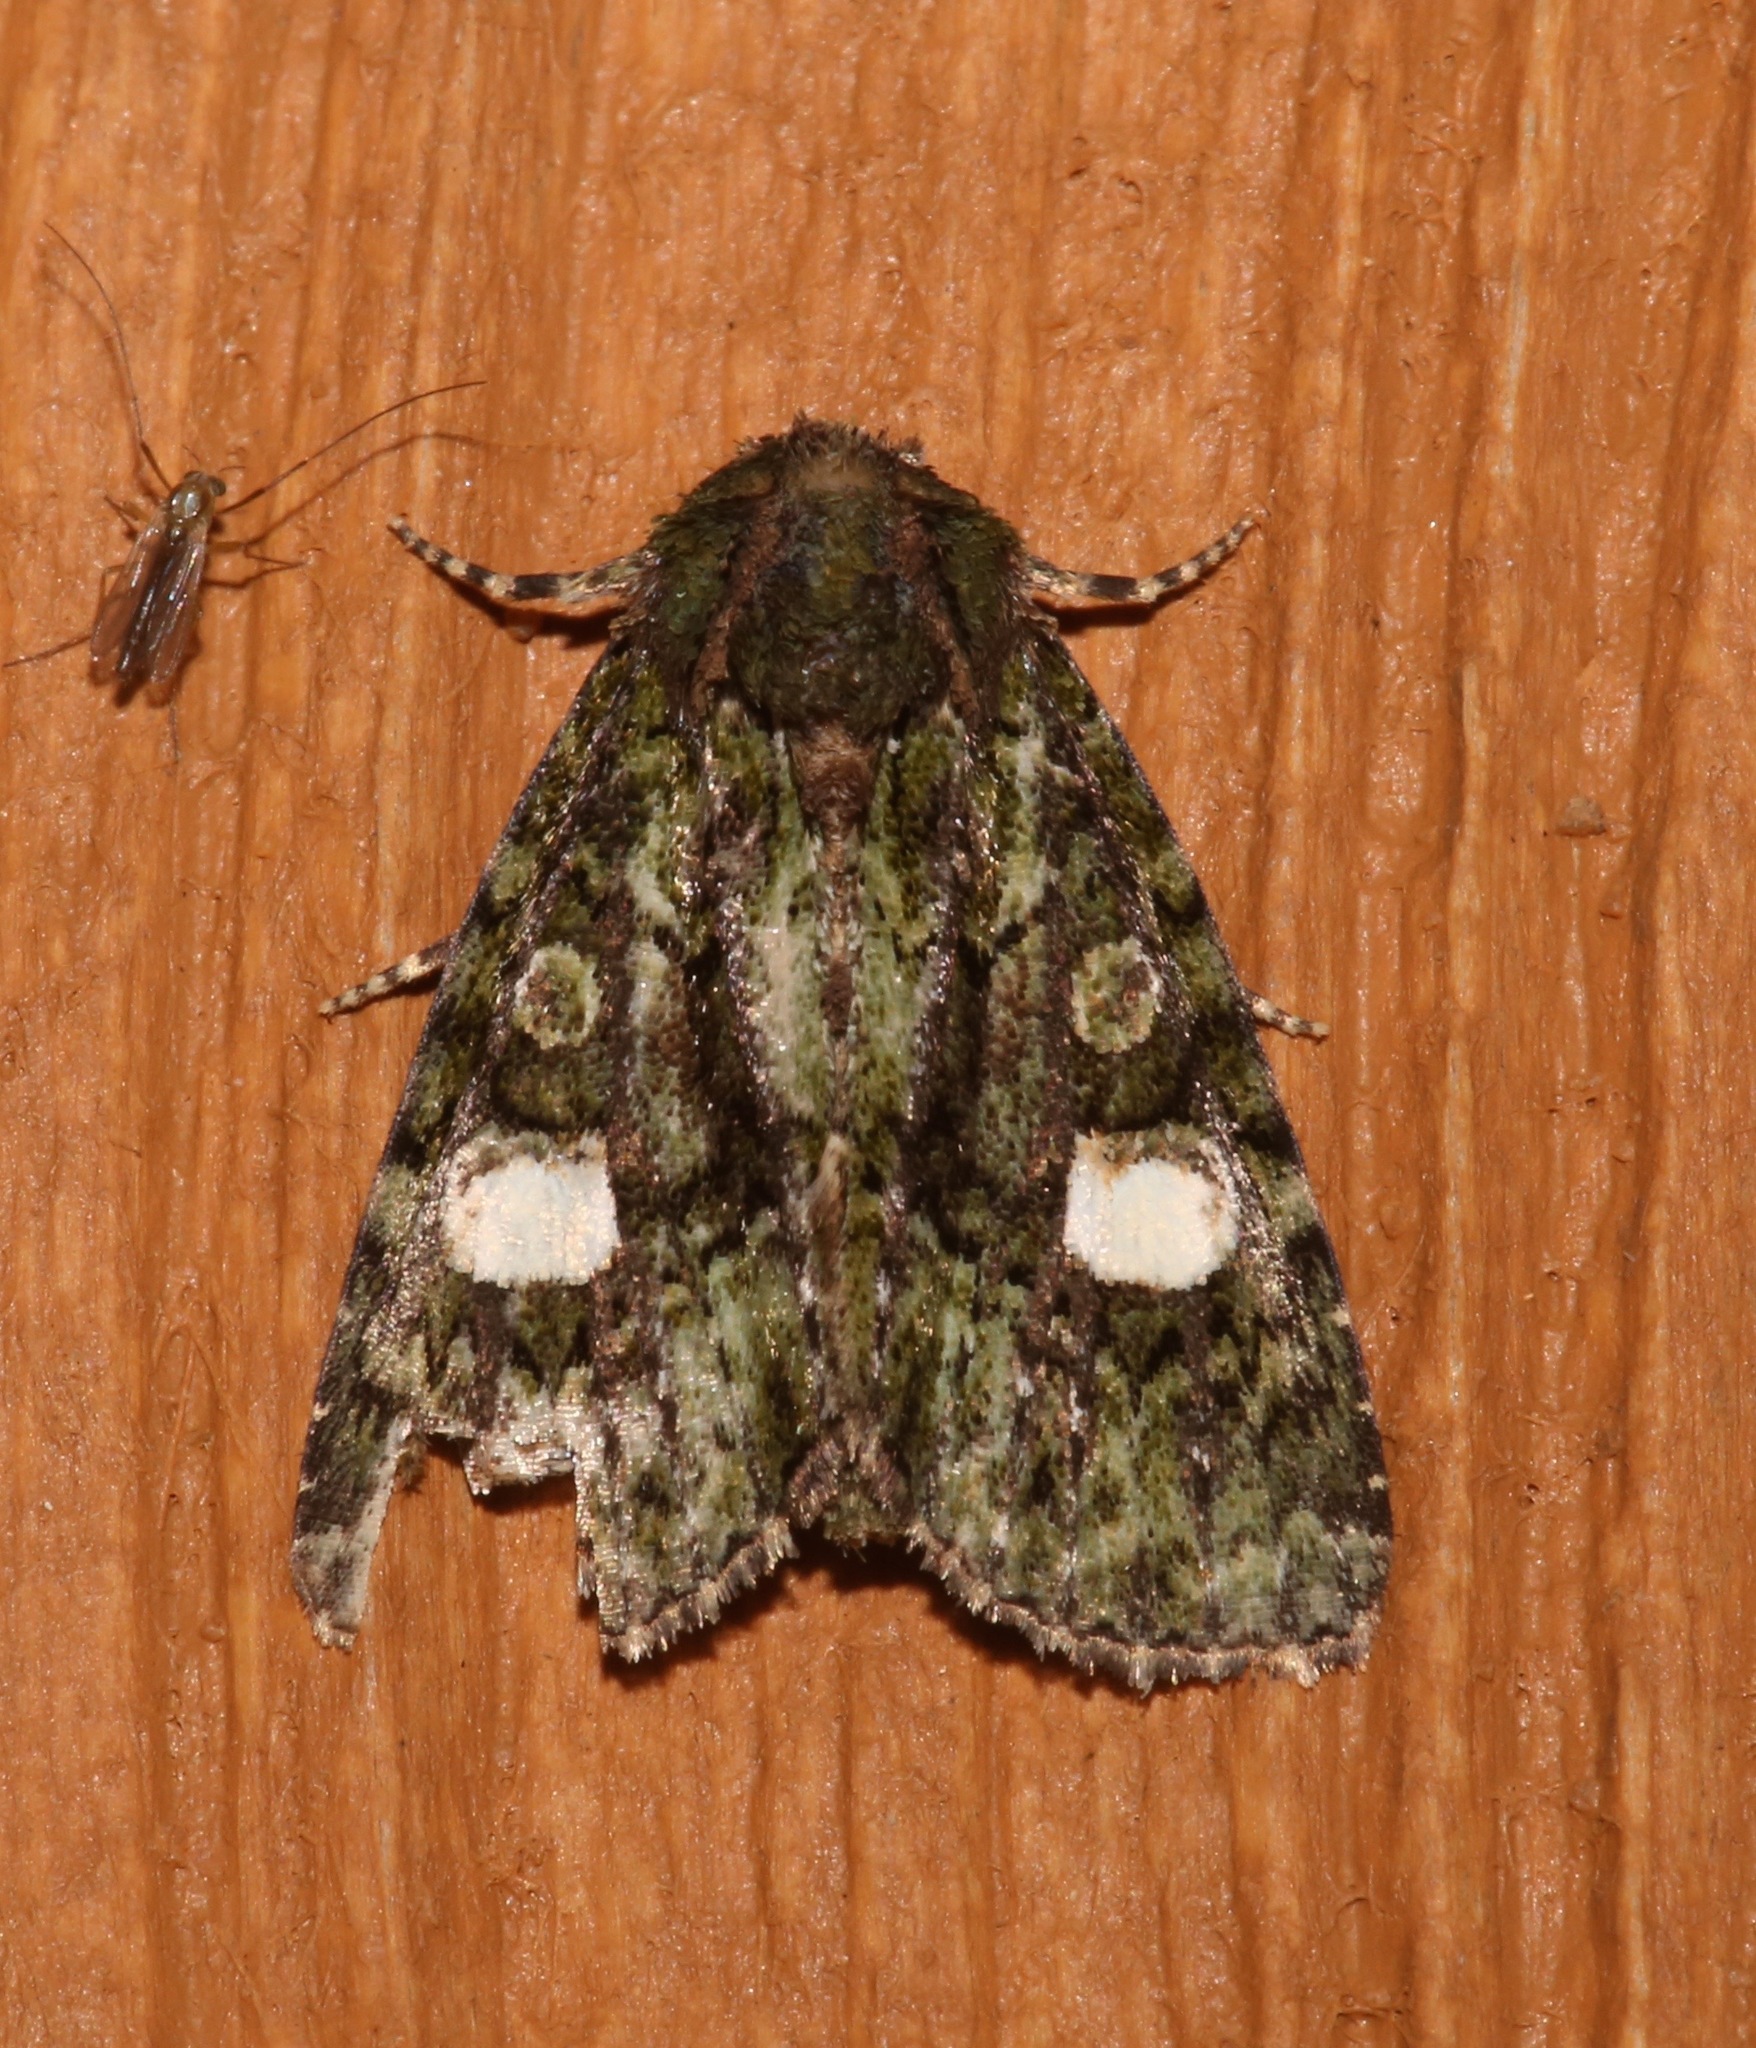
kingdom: Animalia
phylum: Arthropoda
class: Insecta
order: Lepidoptera
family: Noctuidae
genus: Phosphila
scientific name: Phosphila miselioides
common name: Spotted phosphila moth
